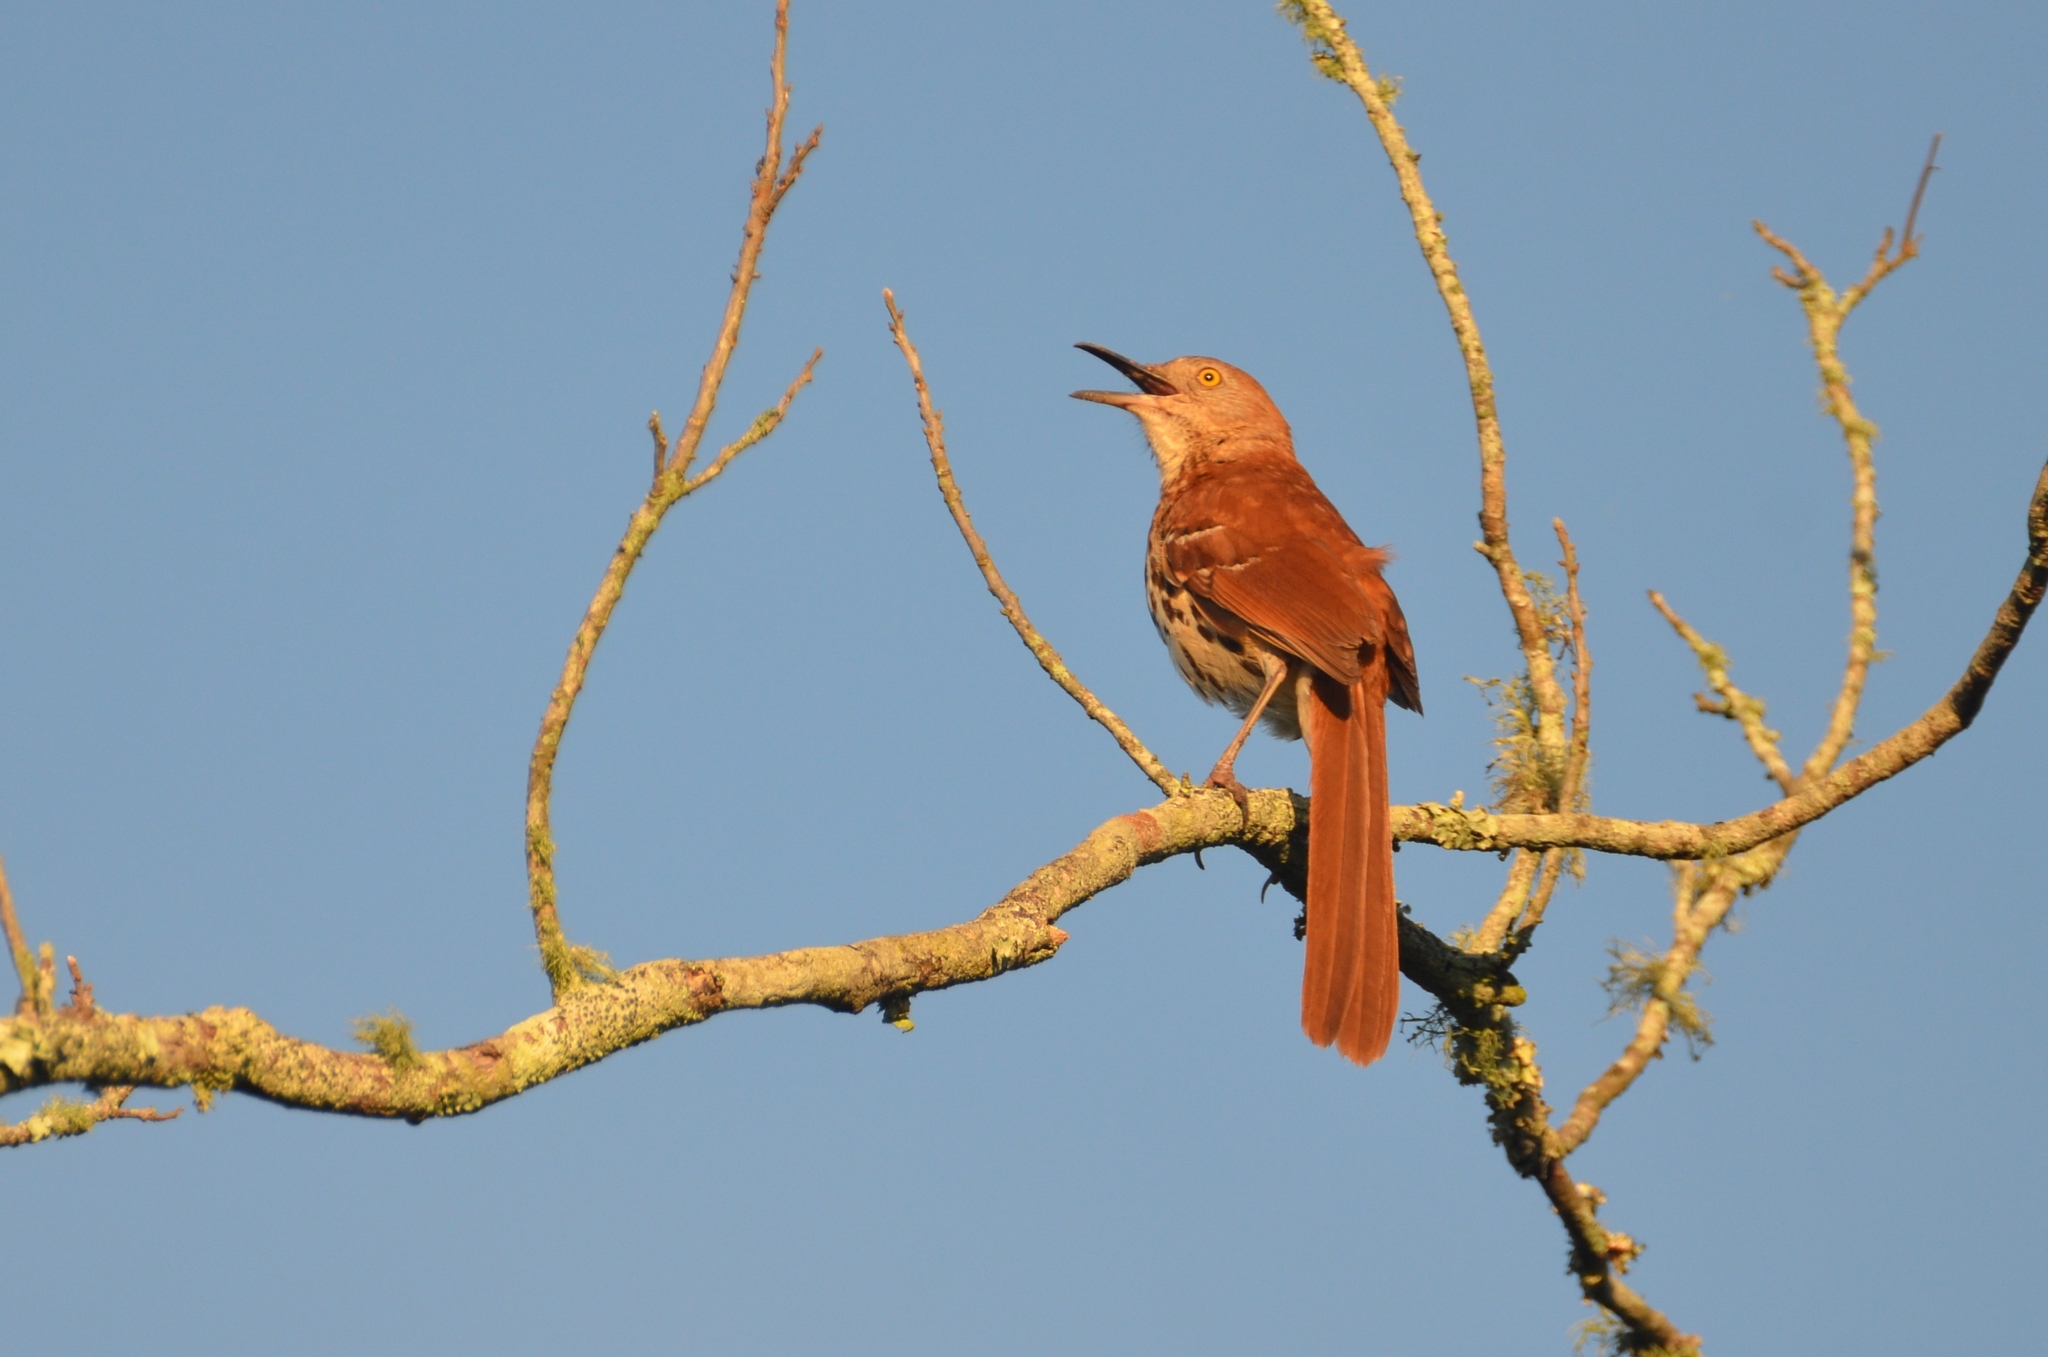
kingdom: Animalia
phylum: Chordata
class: Aves
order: Passeriformes
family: Mimidae
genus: Toxostoma
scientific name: Toxostoma rufum
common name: Brown thrasher
